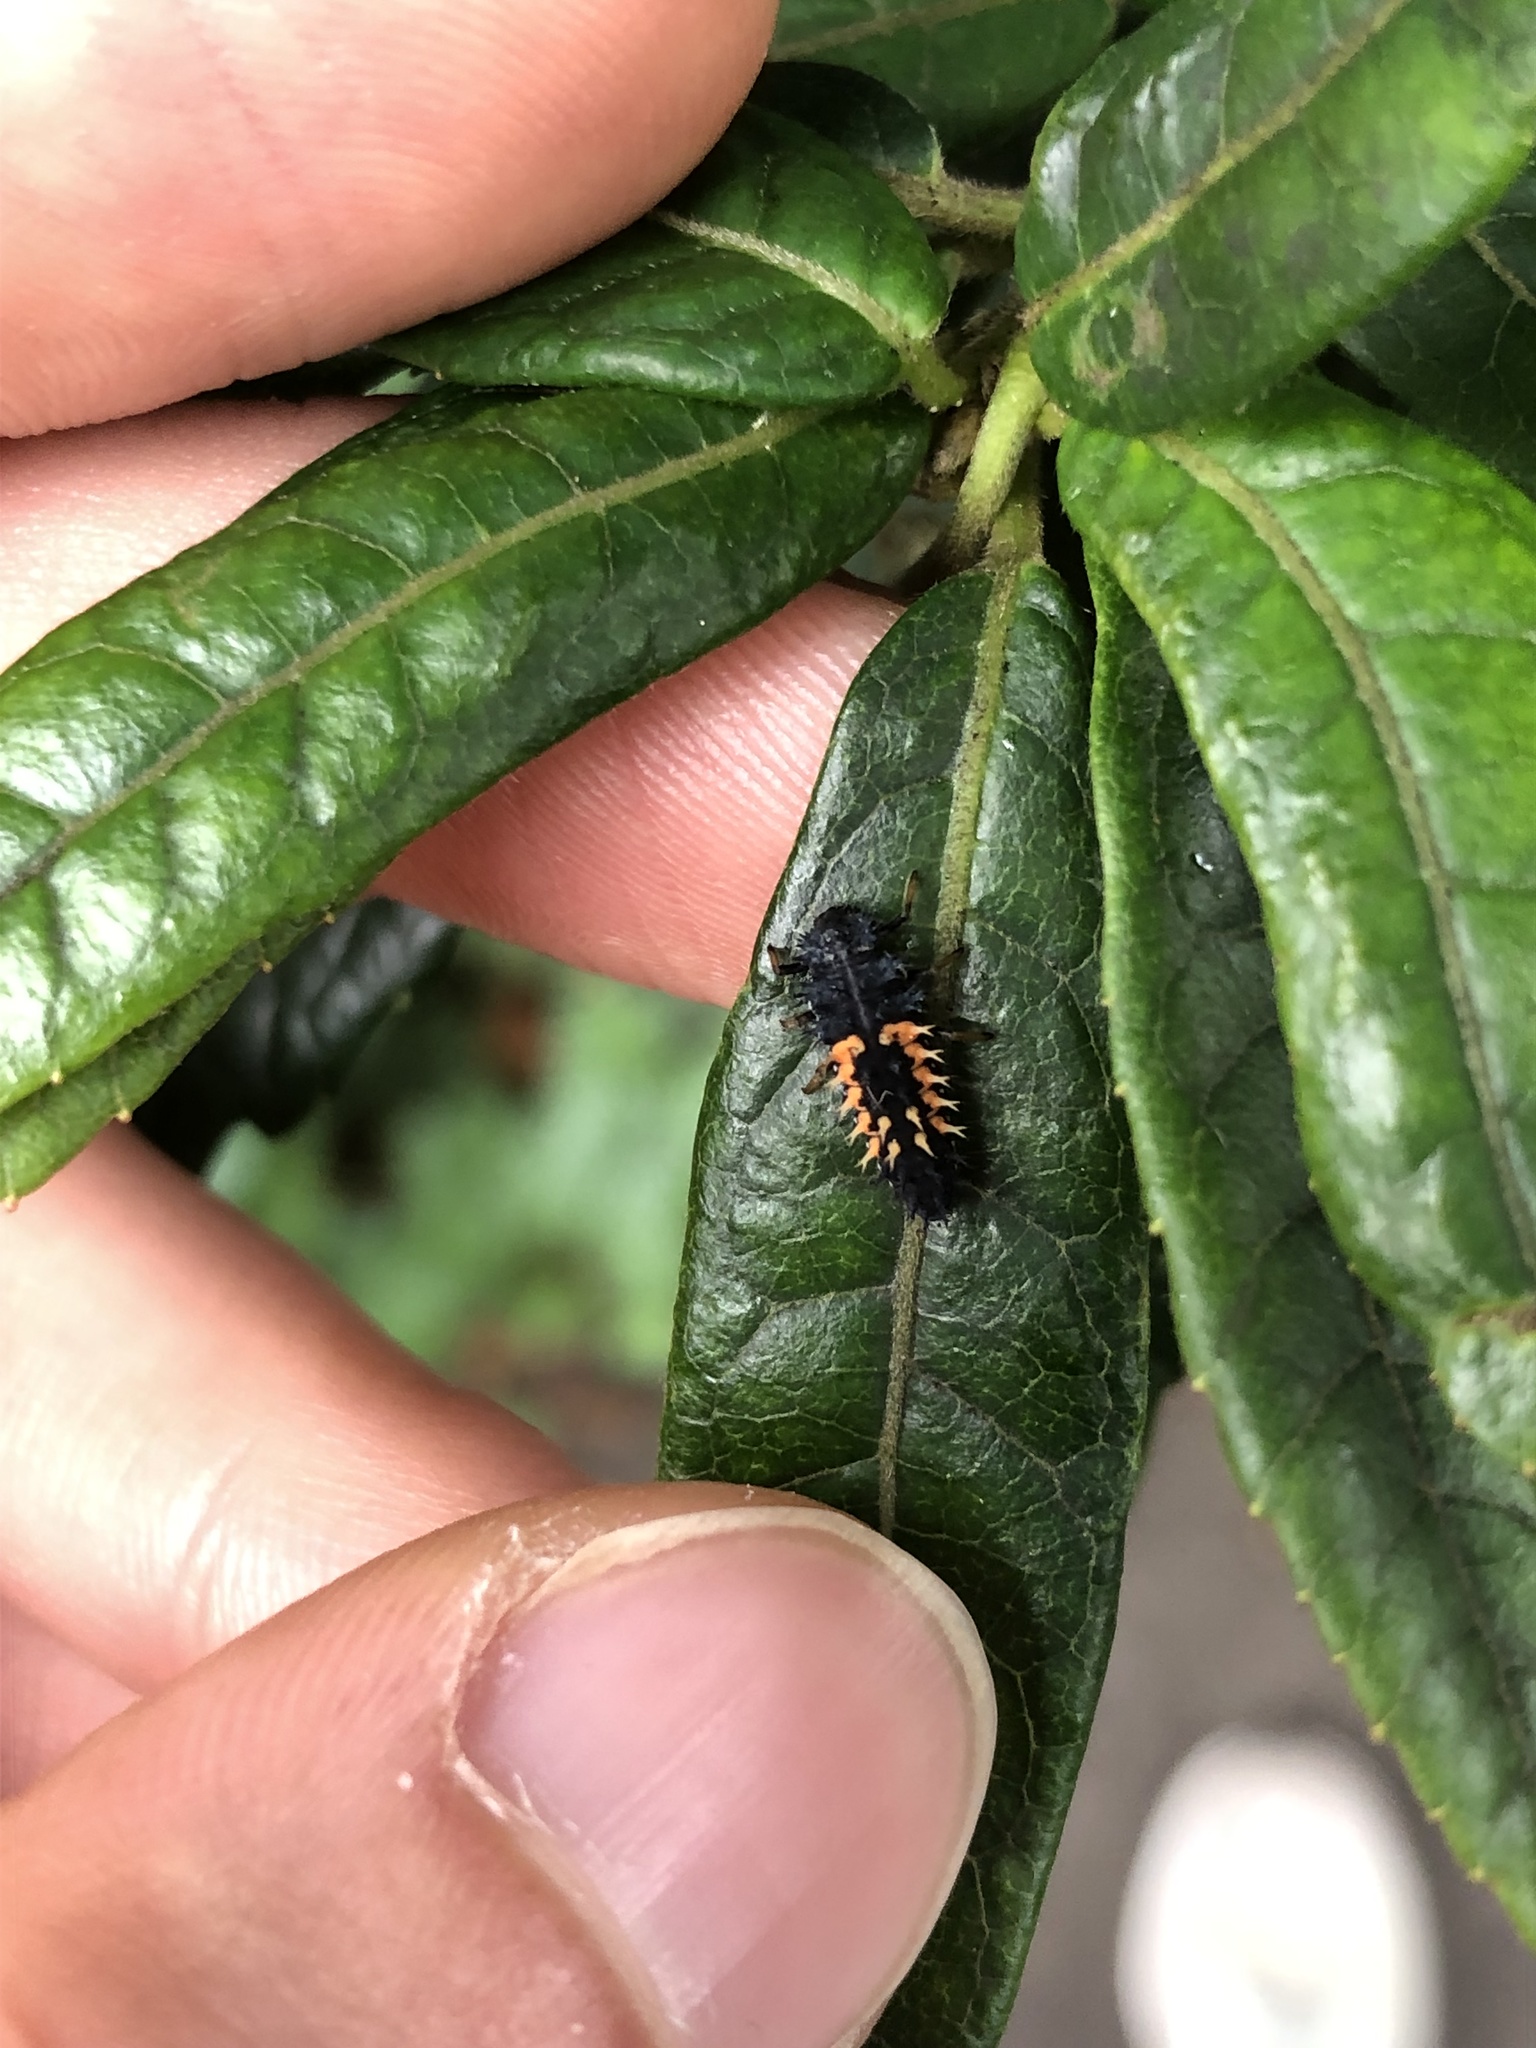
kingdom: Animalia
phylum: Arthropoda
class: Insecta
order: Coleoptera
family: Coccinellidae
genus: Harmonia
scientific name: Harmonia axyridis
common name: Harlequin ladybird
